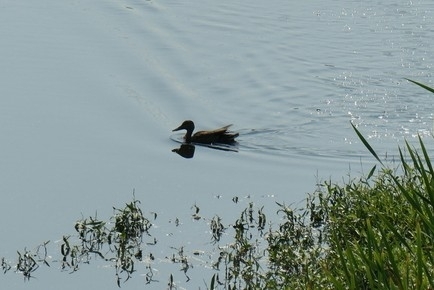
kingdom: Animalia
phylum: Chordata
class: Aves
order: Anseriformes
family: Anatidae
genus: Anas
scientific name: Anas platyrhynchos
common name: Mallard
